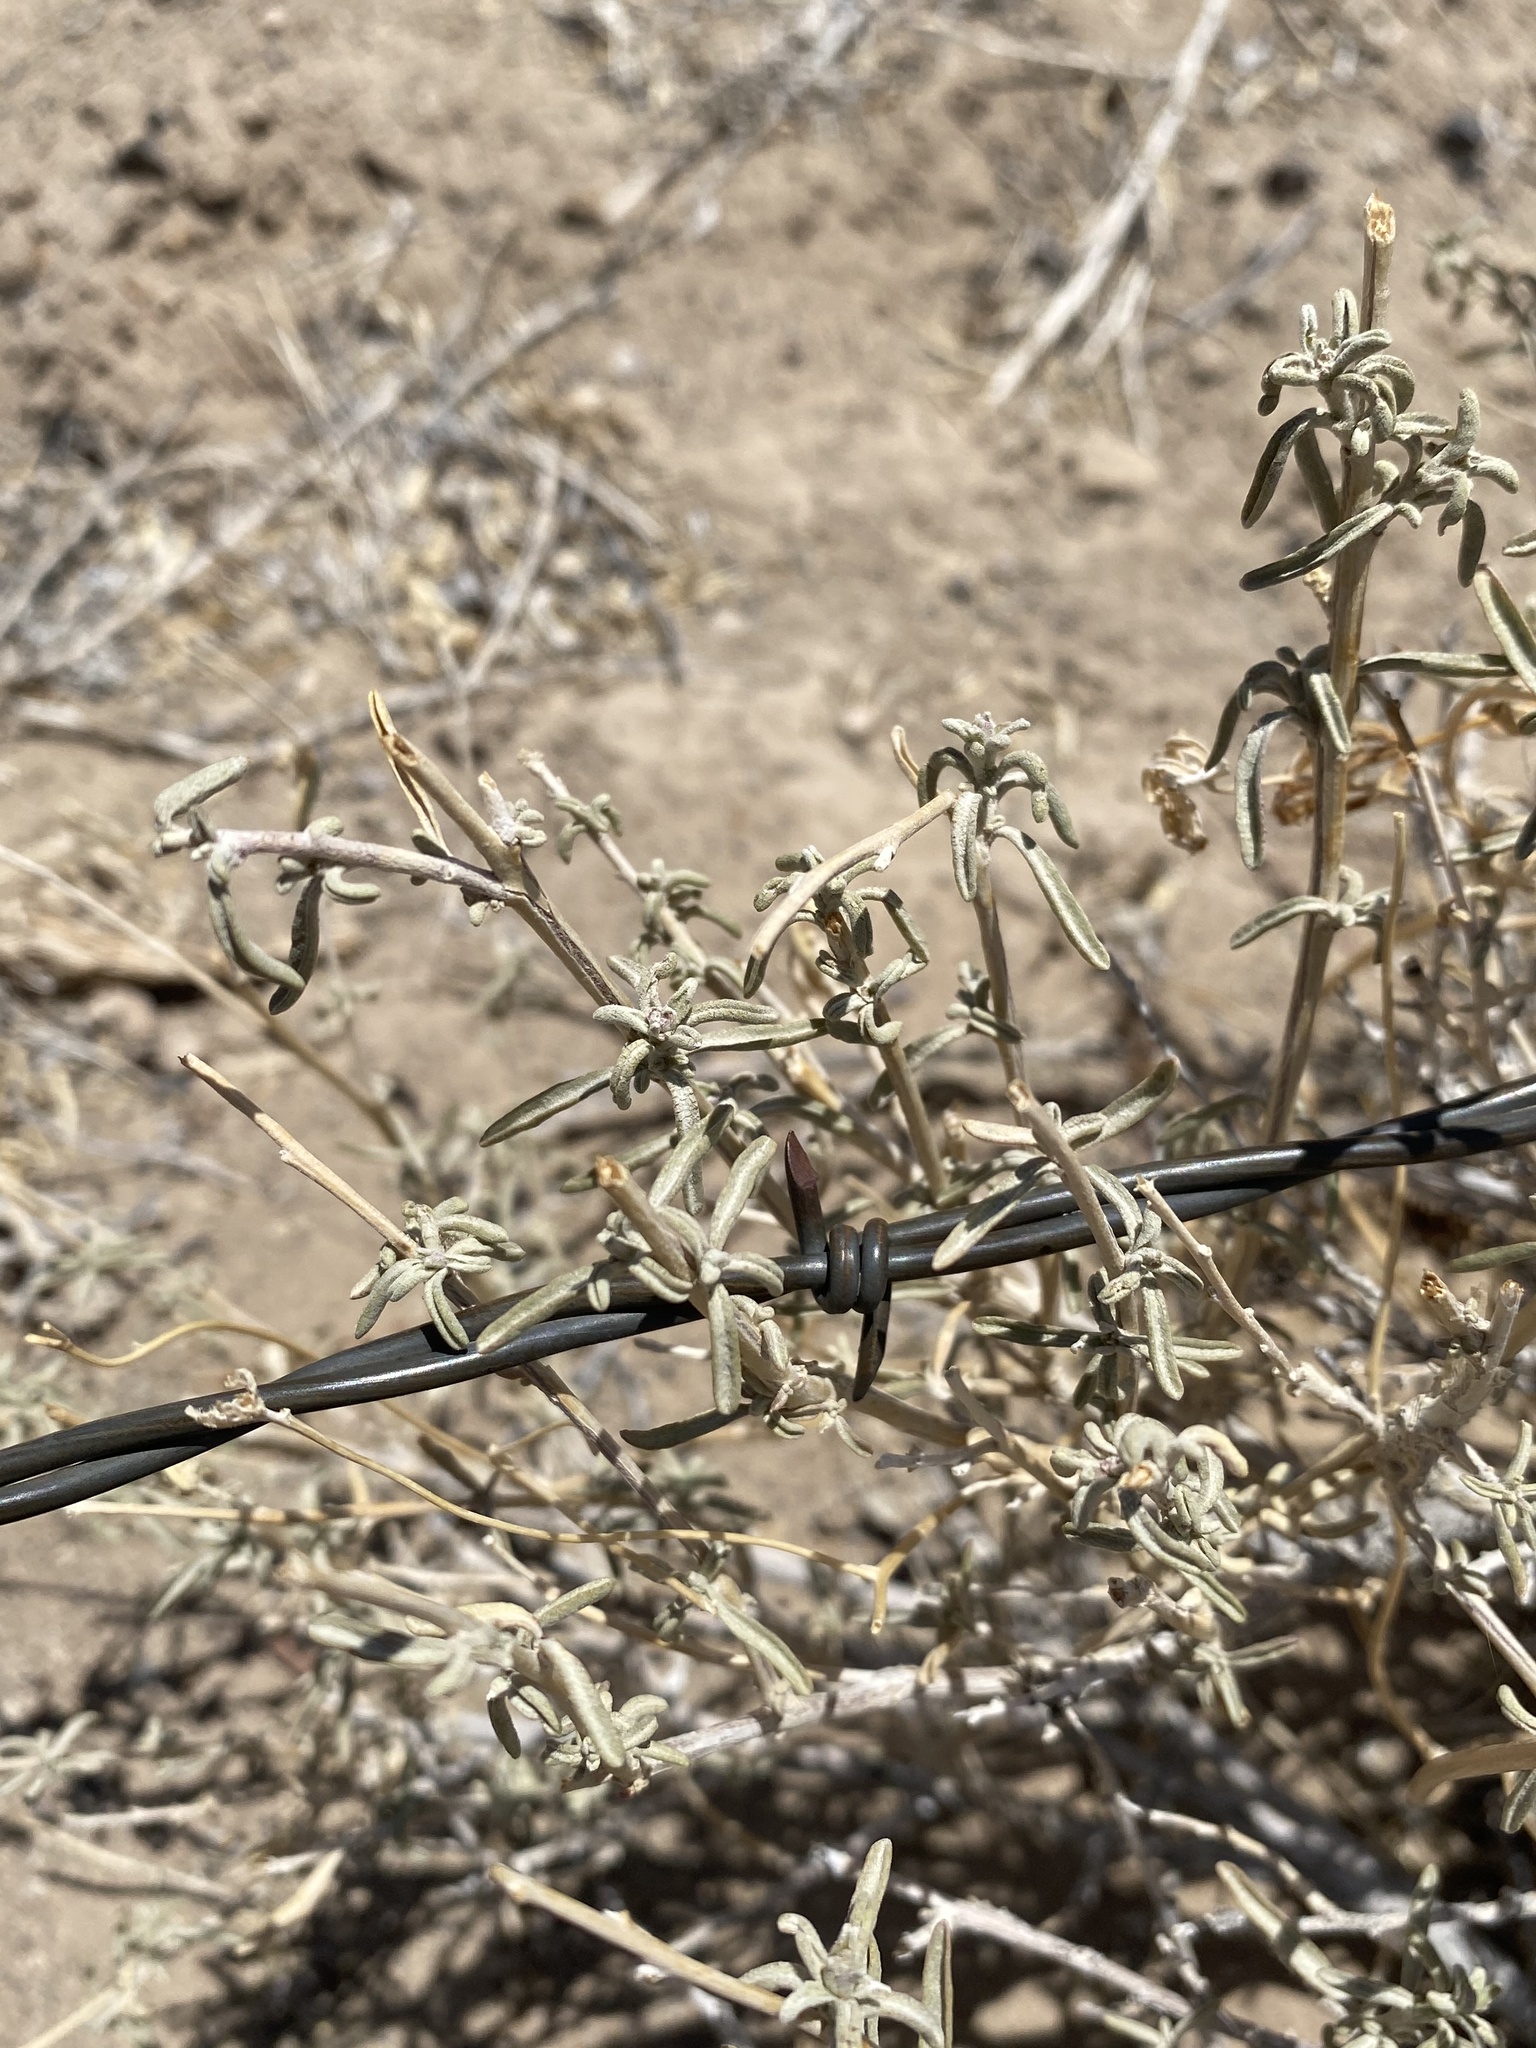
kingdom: Plantae
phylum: Tracheophyta
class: Magnoliopsida
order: Caryophyllales
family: Amaranthaceae
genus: Atriplex
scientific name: Atriplex canescens
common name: Four-wing saltbush
